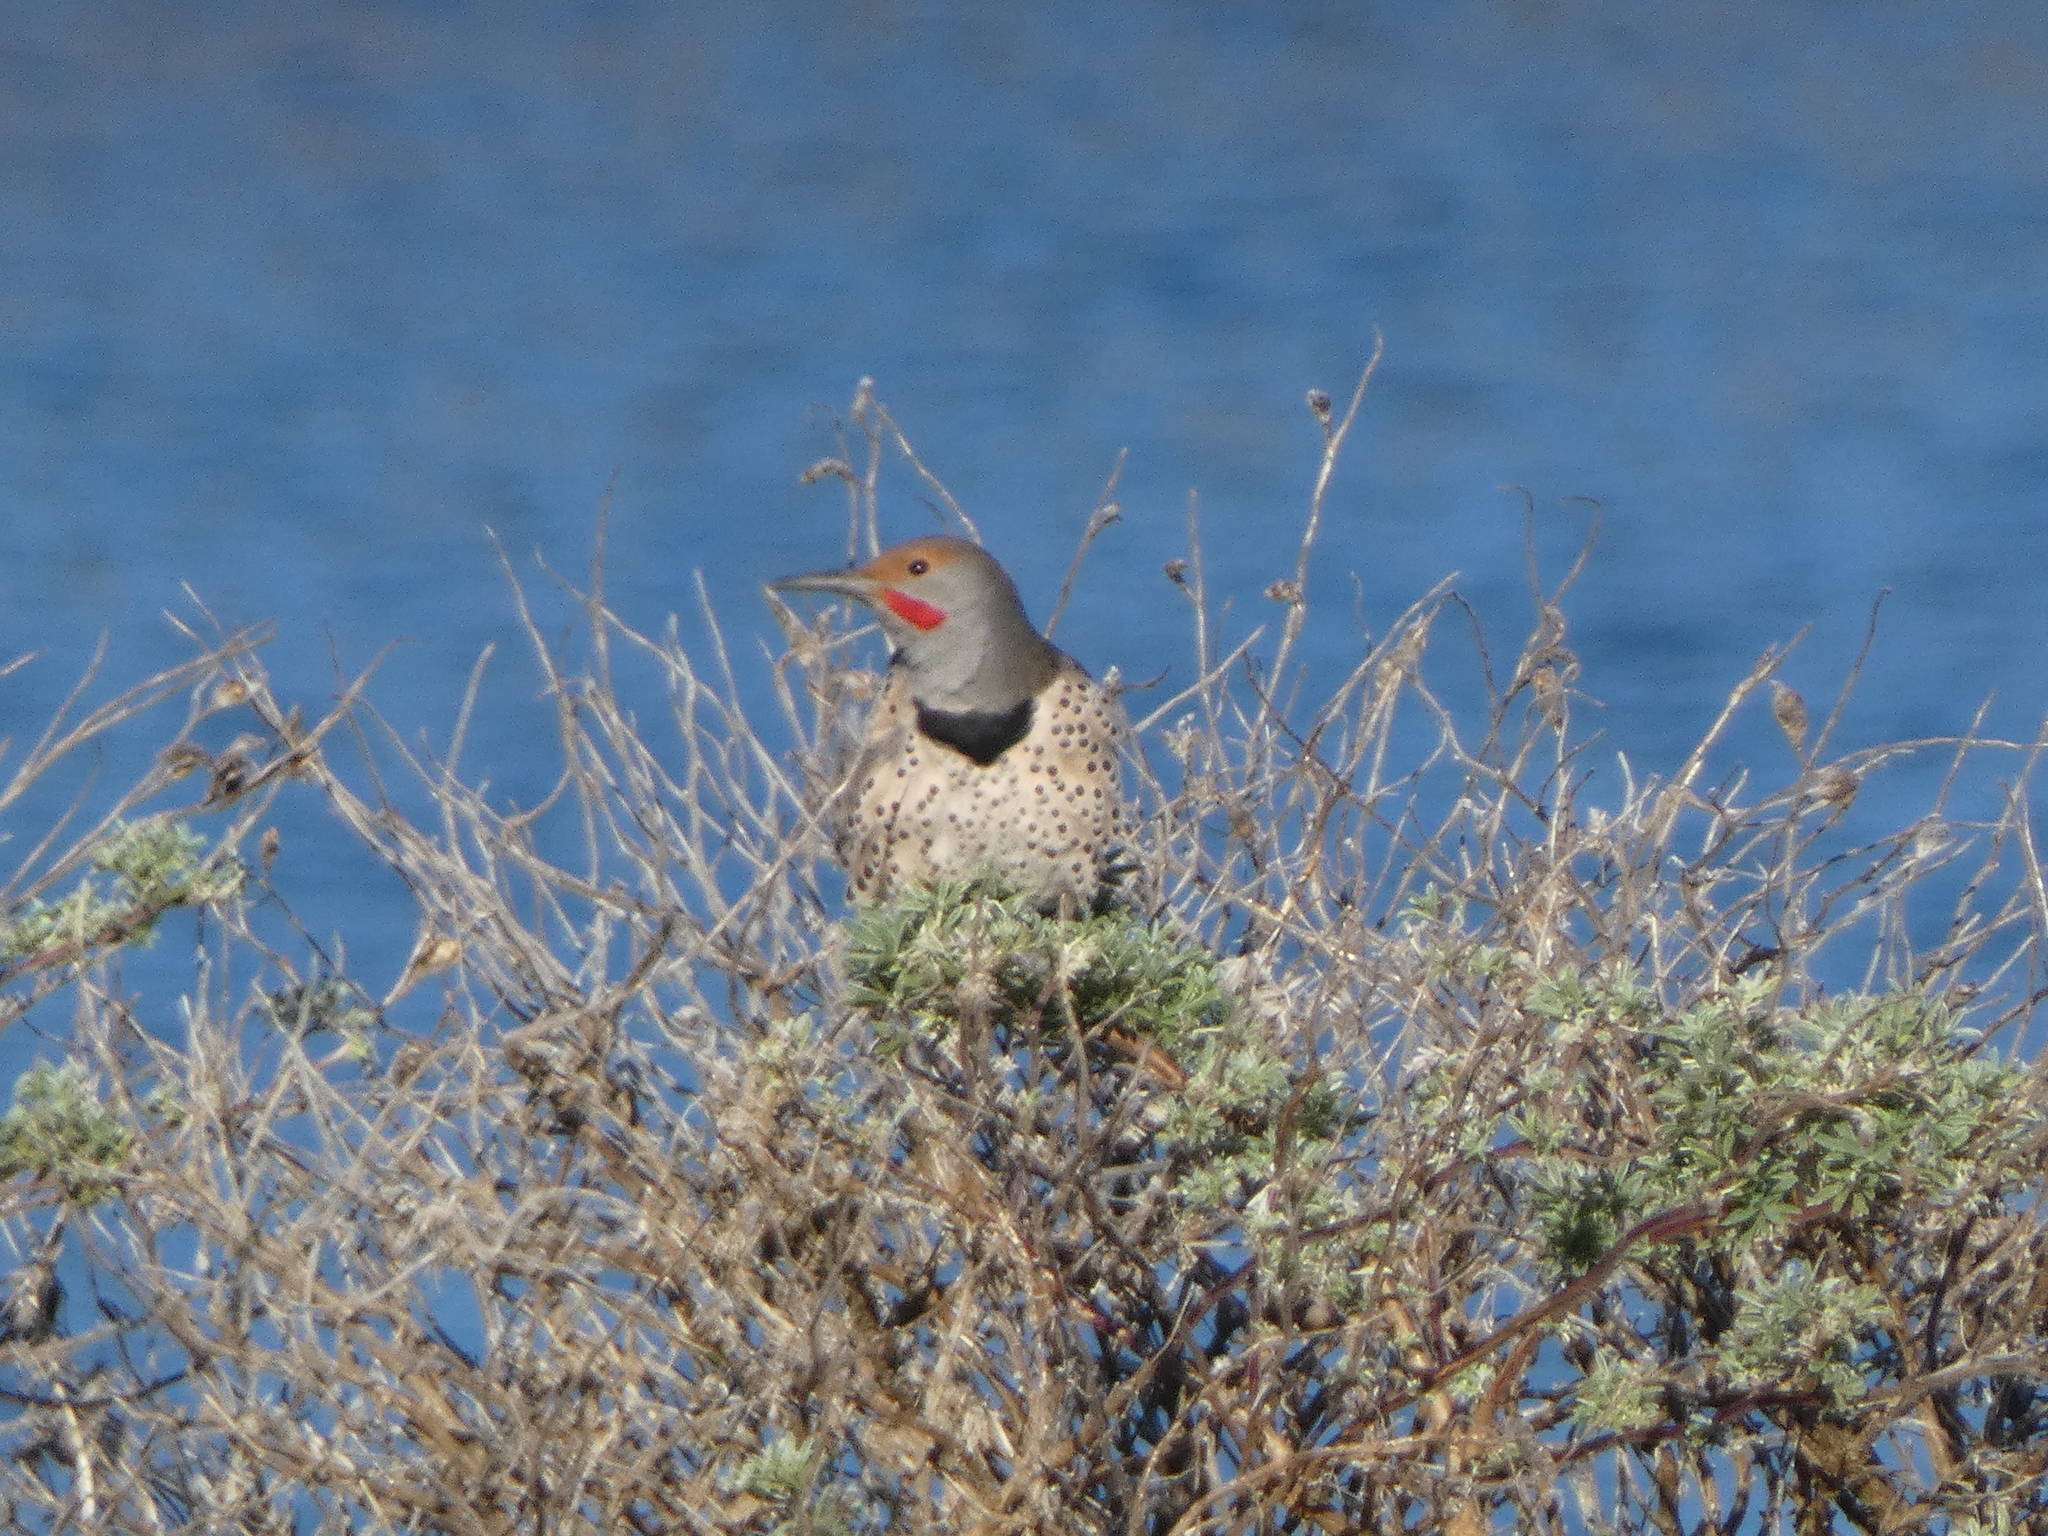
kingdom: Animalia
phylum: Chordata
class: Aves
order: Piciformes
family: Picidae
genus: Colaptes
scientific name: Colaptes auratus
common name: Northern flicker
